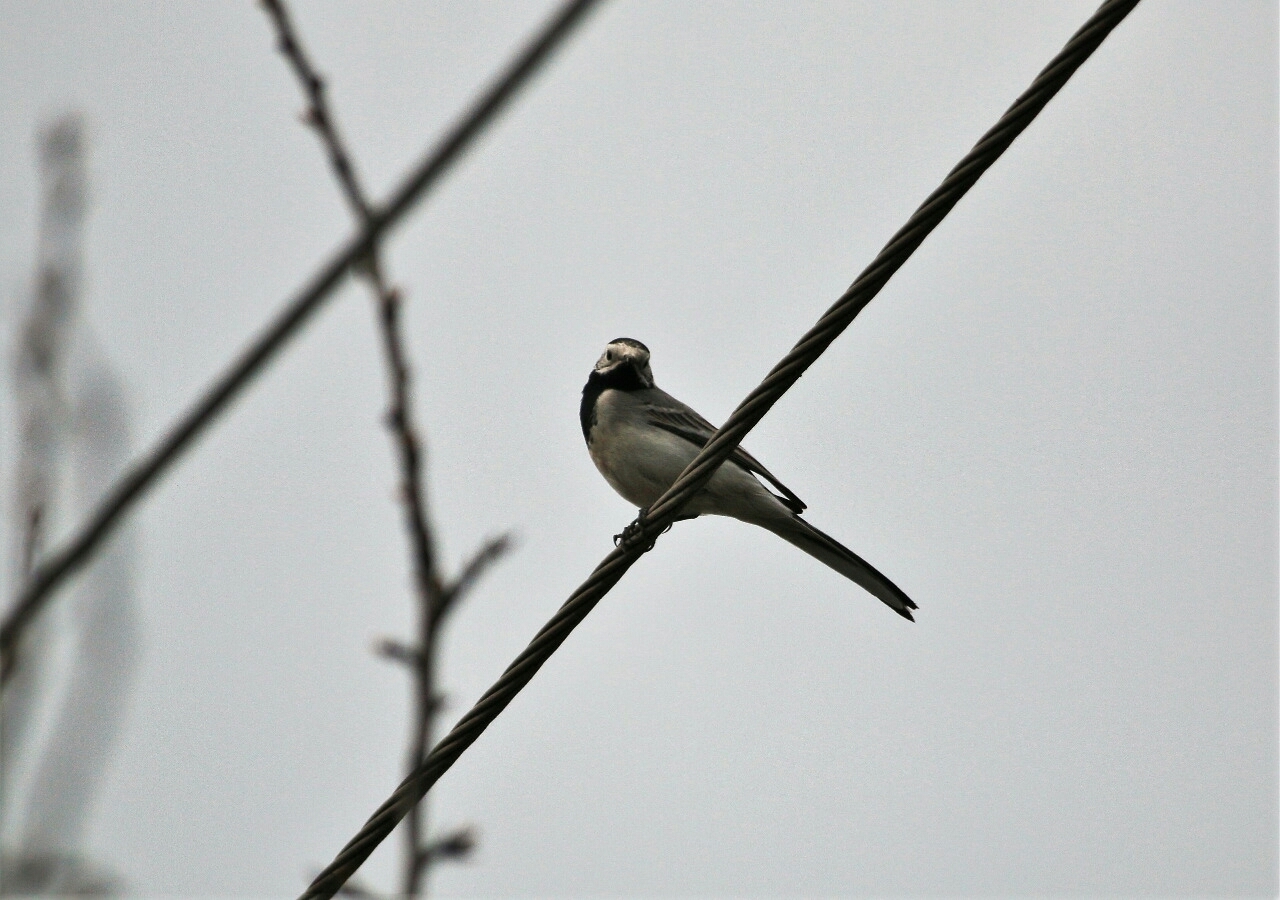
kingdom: Animalia
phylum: Chordata
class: Aves
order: Passeriformes
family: Motacillidae
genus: Motacilla
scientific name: Motacilla alba
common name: White wagtail
